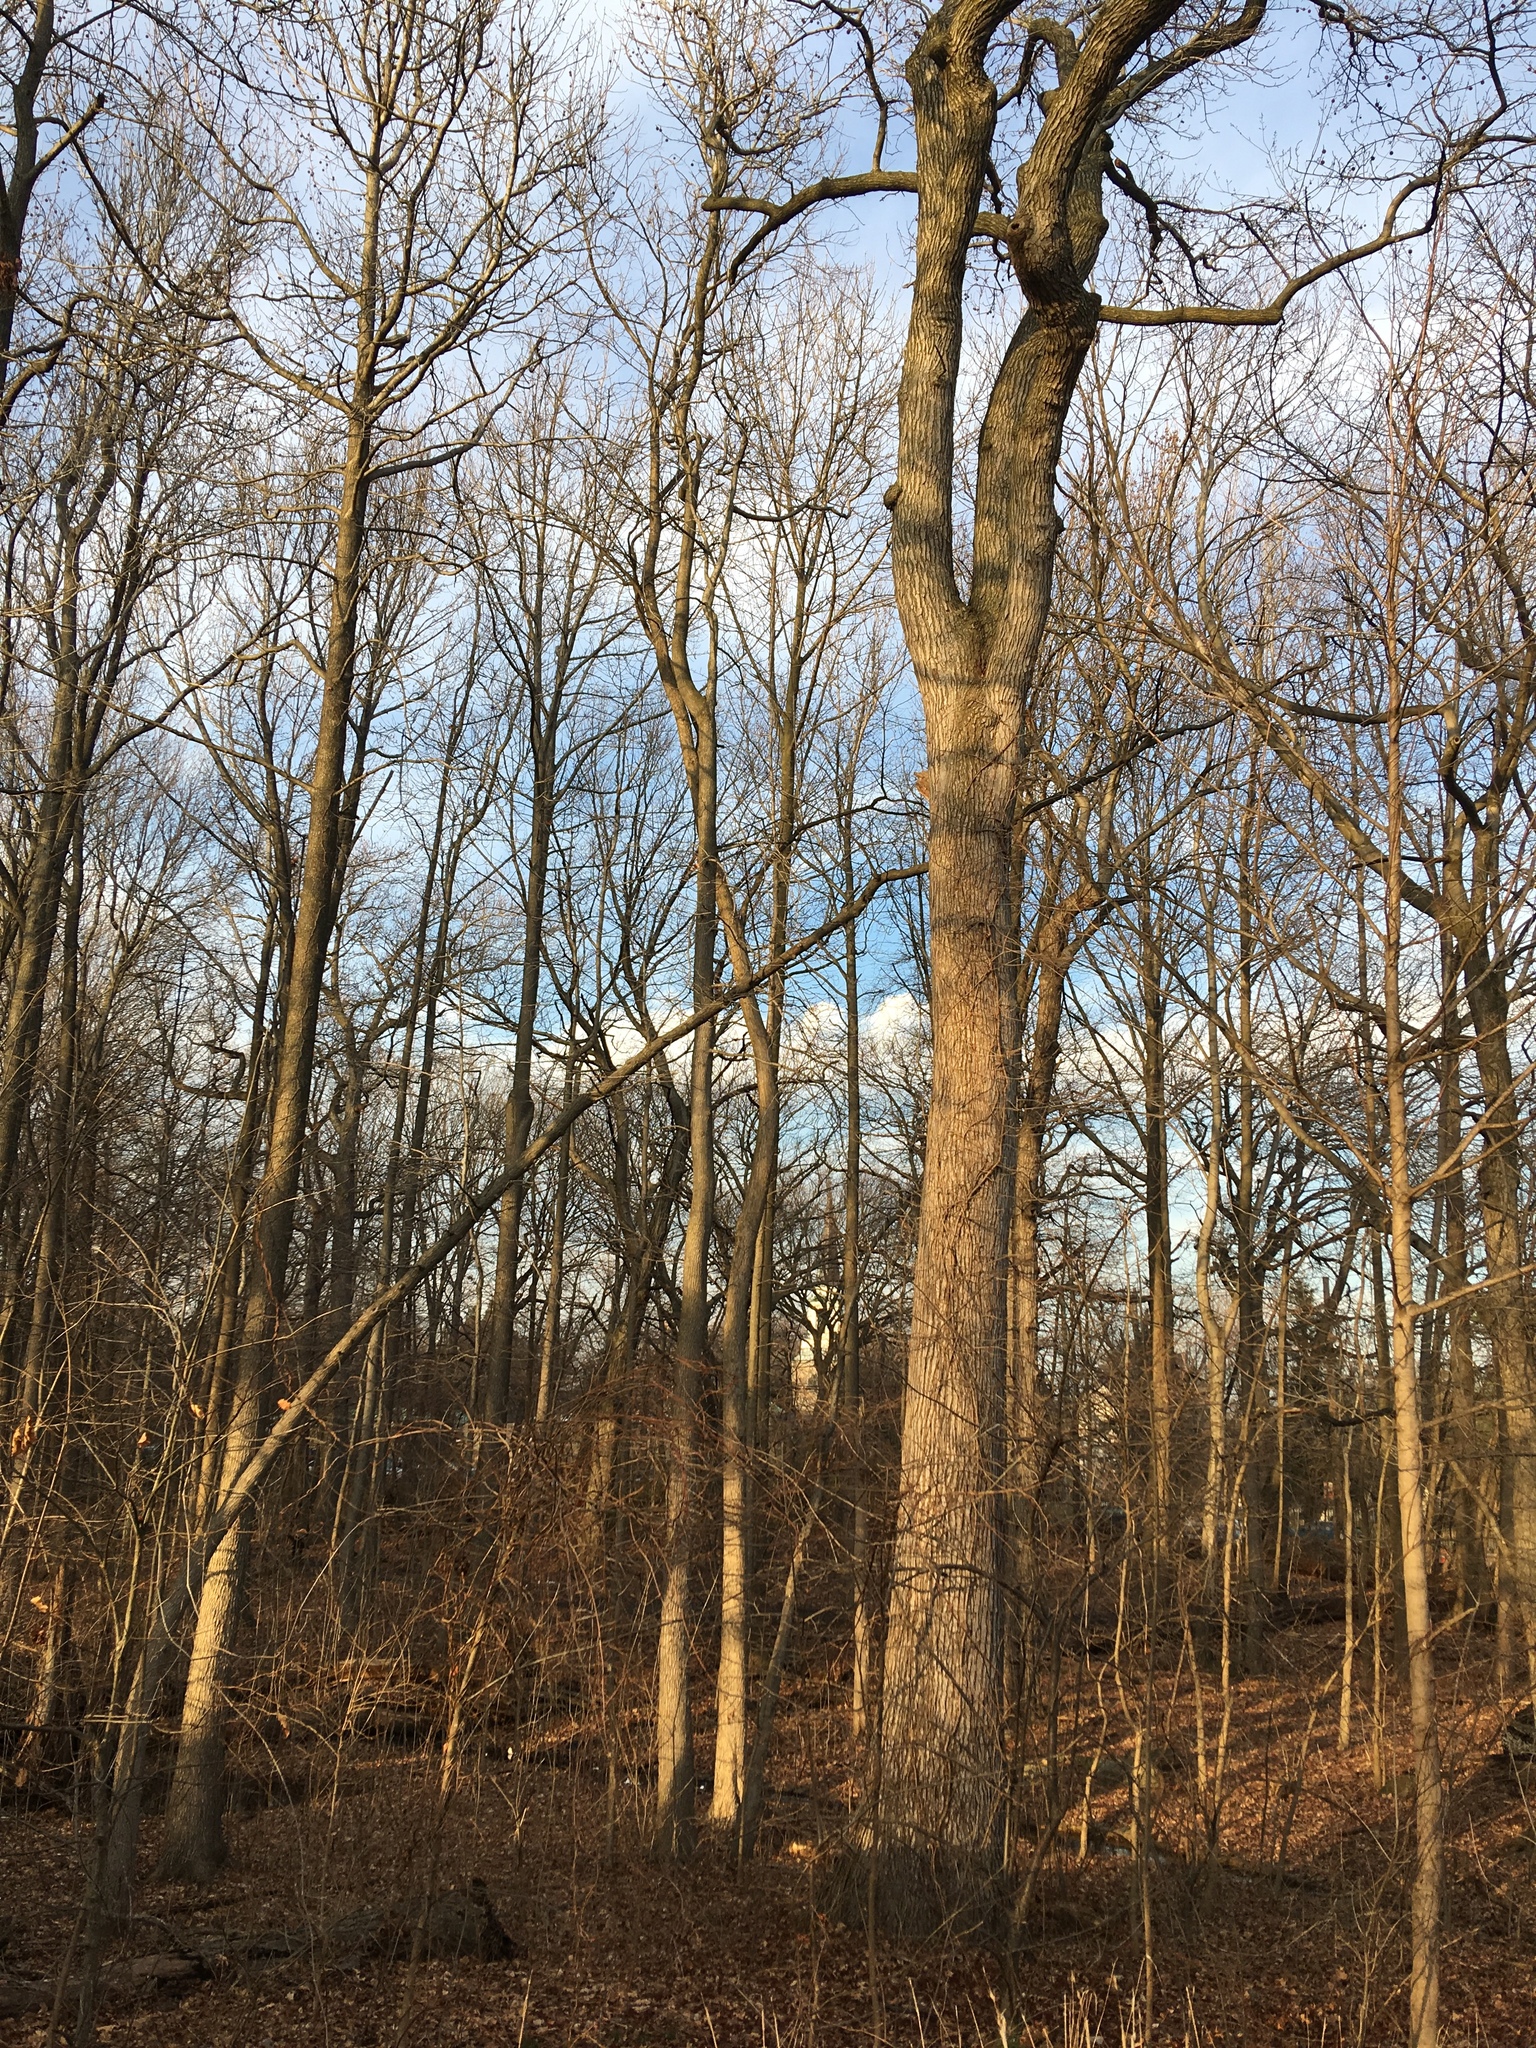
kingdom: Plantae
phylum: Tracheophyta
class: Magnoliopsida
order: Saxifragales
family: Altingiaceae
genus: Liquidambar
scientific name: Liquidambar styraciflua
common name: Sweet gum
